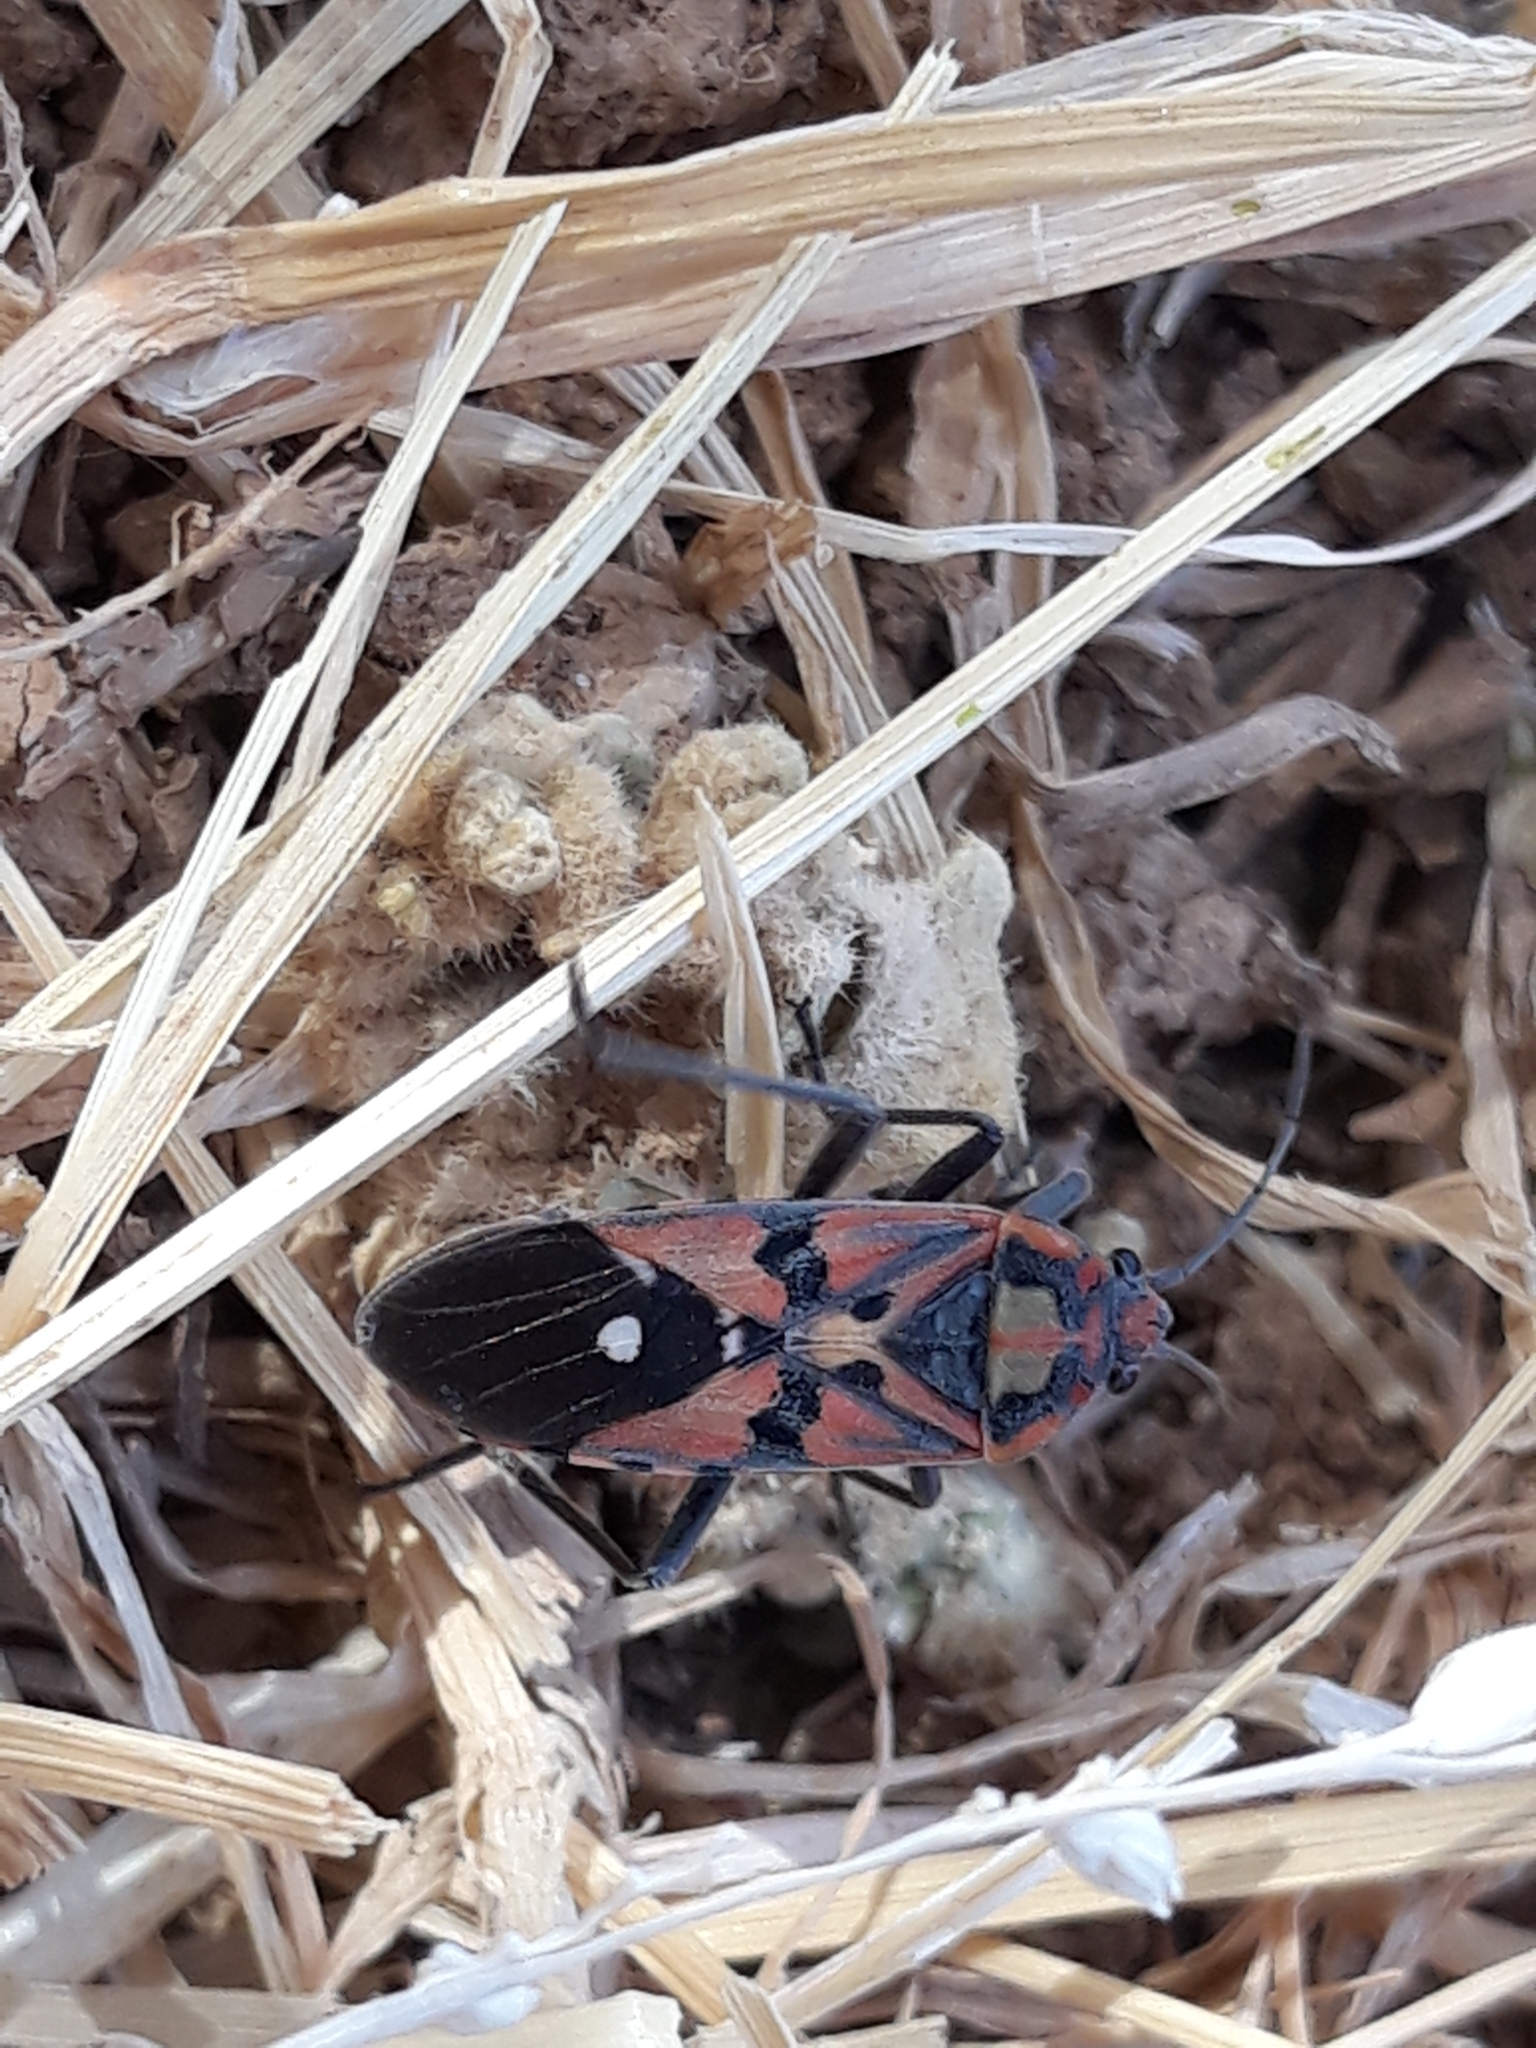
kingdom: Animalia
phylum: Arthropoda
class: Insecta
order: Hemiptera
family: Lygaeidae
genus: Spilostethus
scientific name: Spilostethus pandurus
